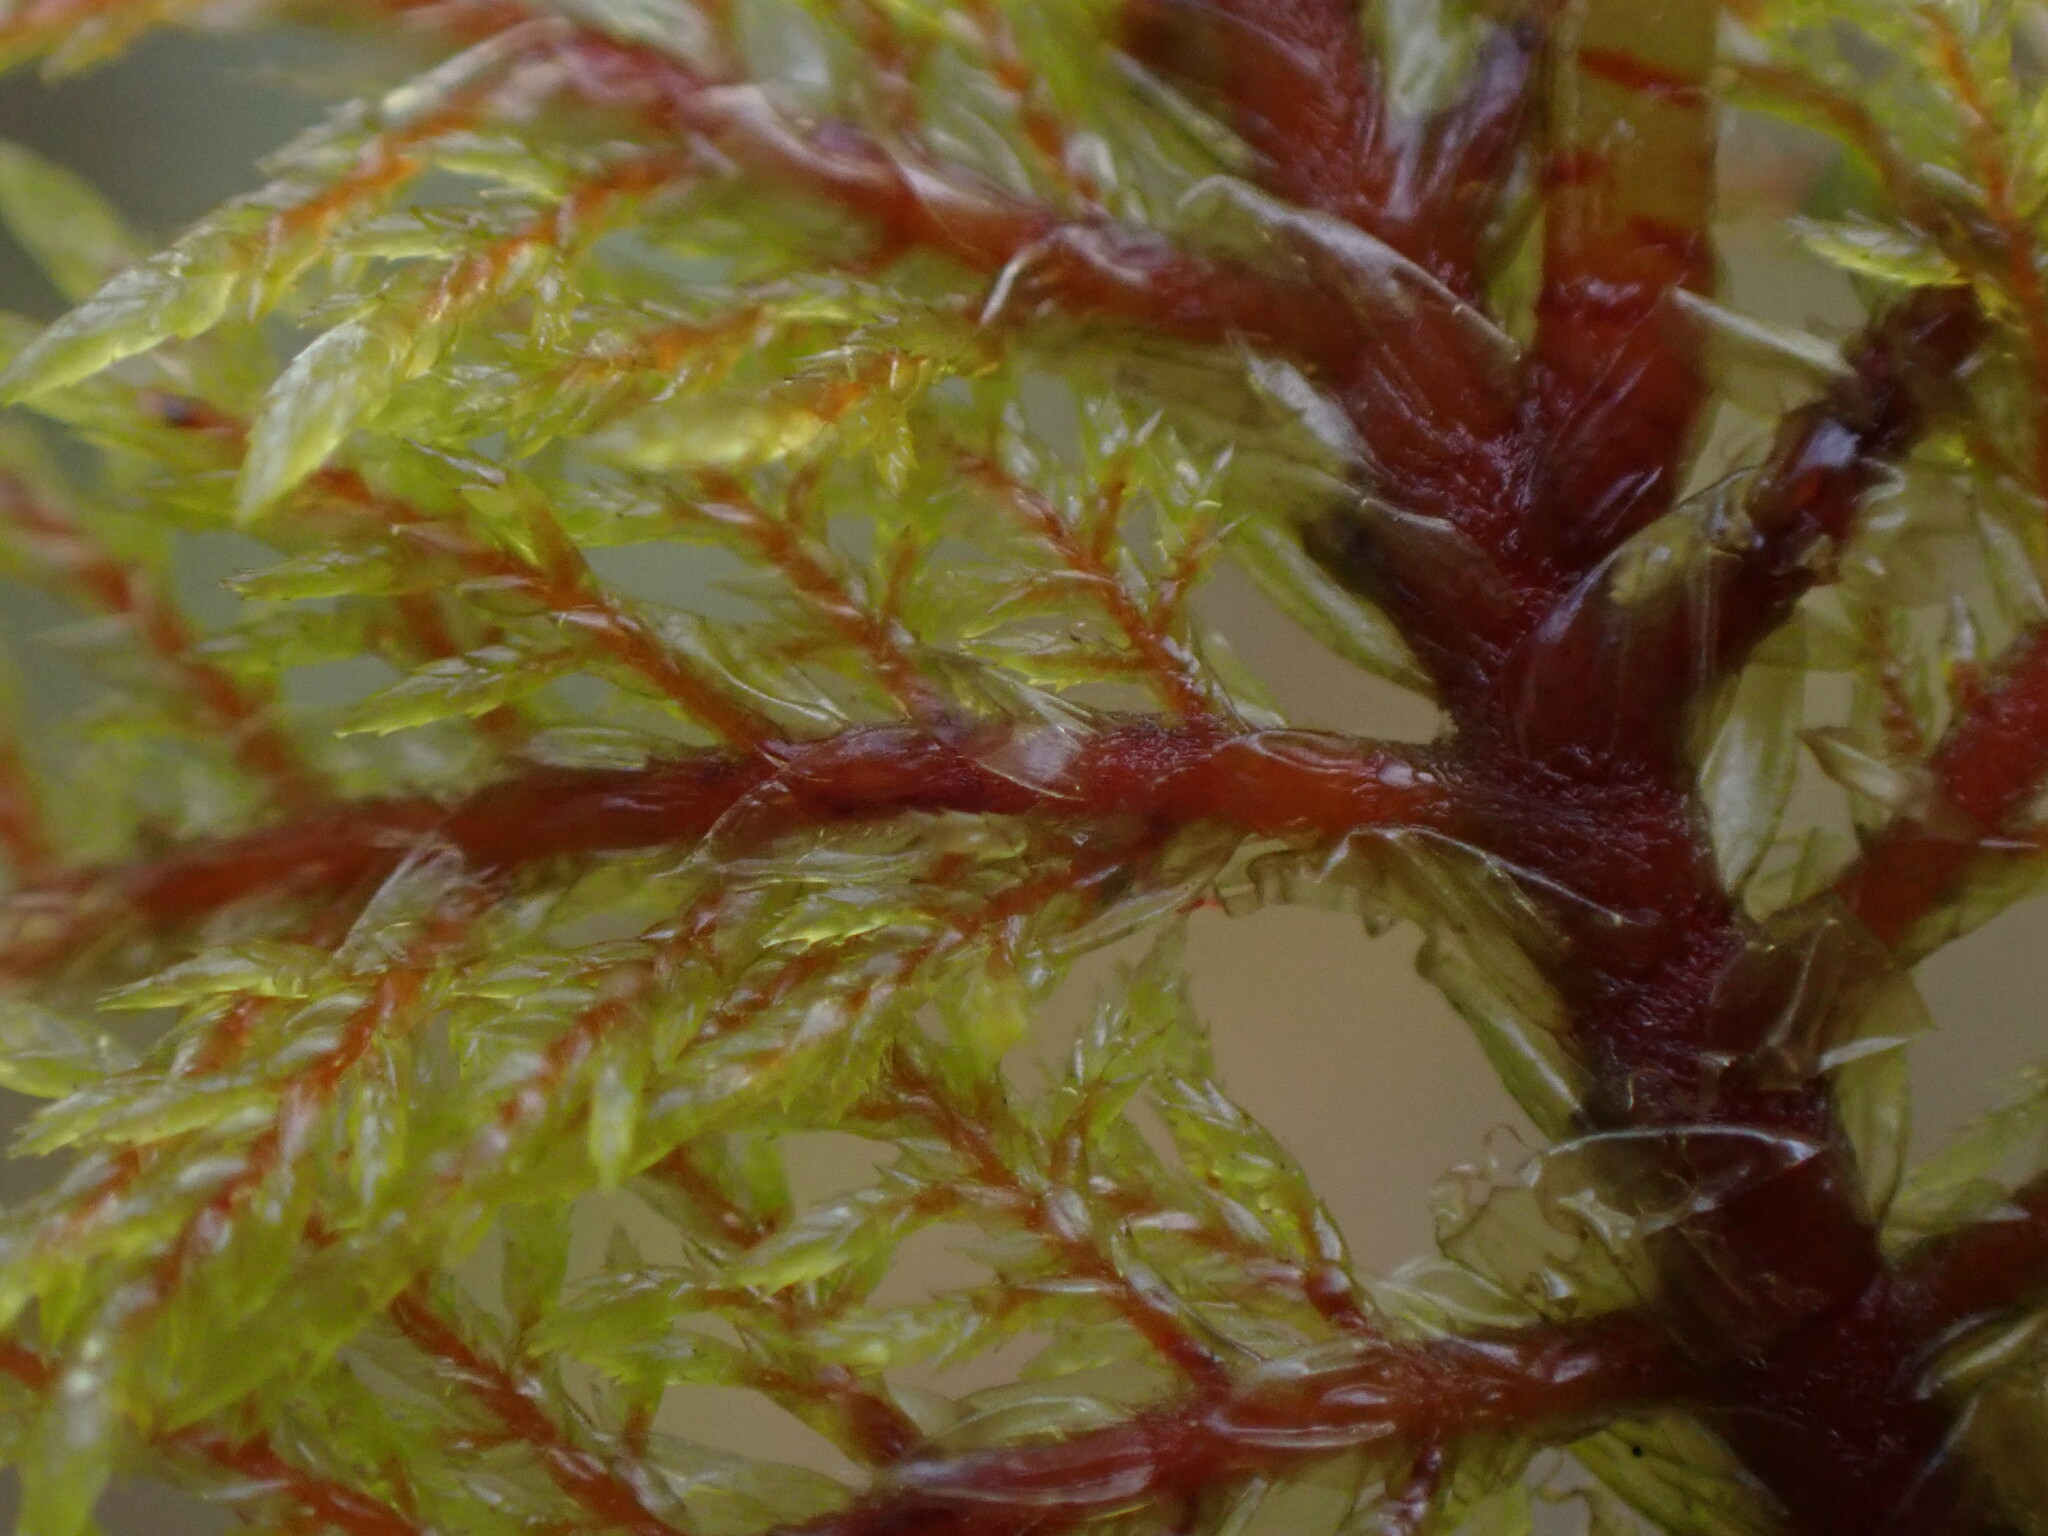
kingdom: Plantae
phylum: Bryophyta
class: Bryopsida
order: Hypnales
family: Hylocomiaceae
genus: Hylocomium
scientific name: Hylocomium splendens
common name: Stairstep moss
